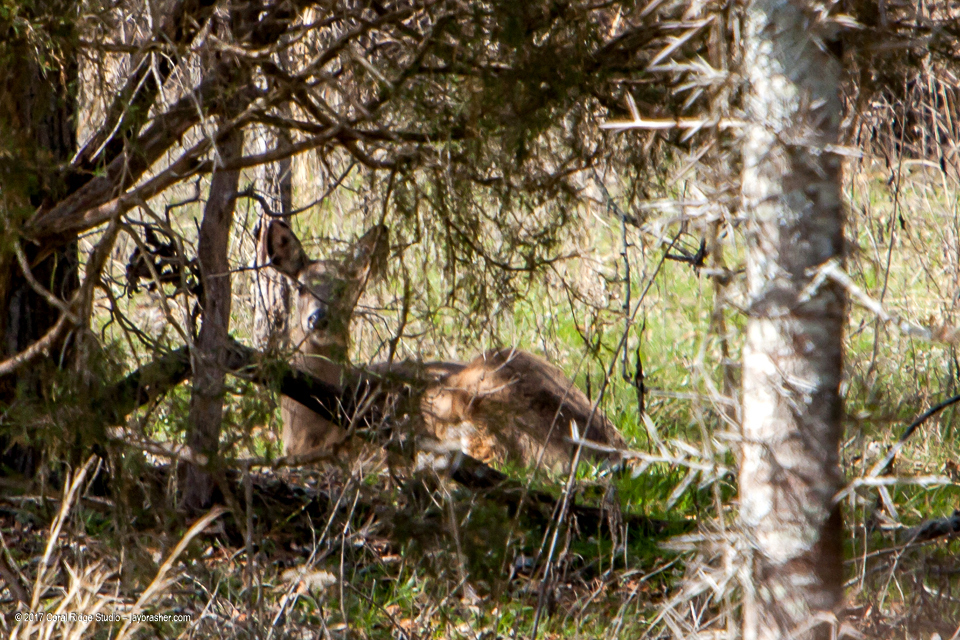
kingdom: Animalia
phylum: Chordata
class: Mammalia
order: Artiodactyla
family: Cervidae
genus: Odocoileus
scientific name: Odocoileus virginianus
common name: White-tailed deer
